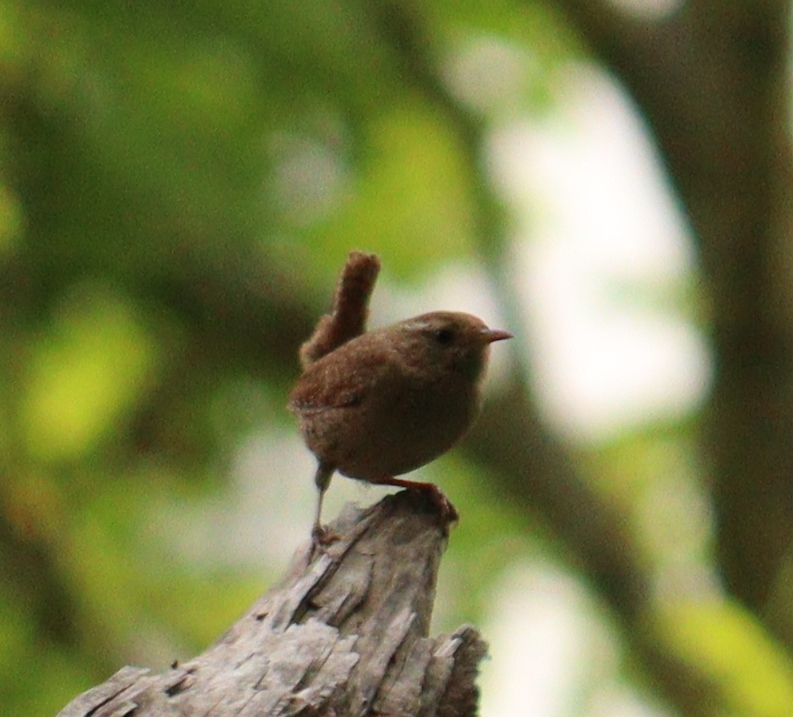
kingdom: Animalia
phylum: Chordata
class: Aves
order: Passeriformes
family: Troglodytidae
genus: Troglodytes
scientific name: Troglodytes troglodytes
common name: Eurasian wren
